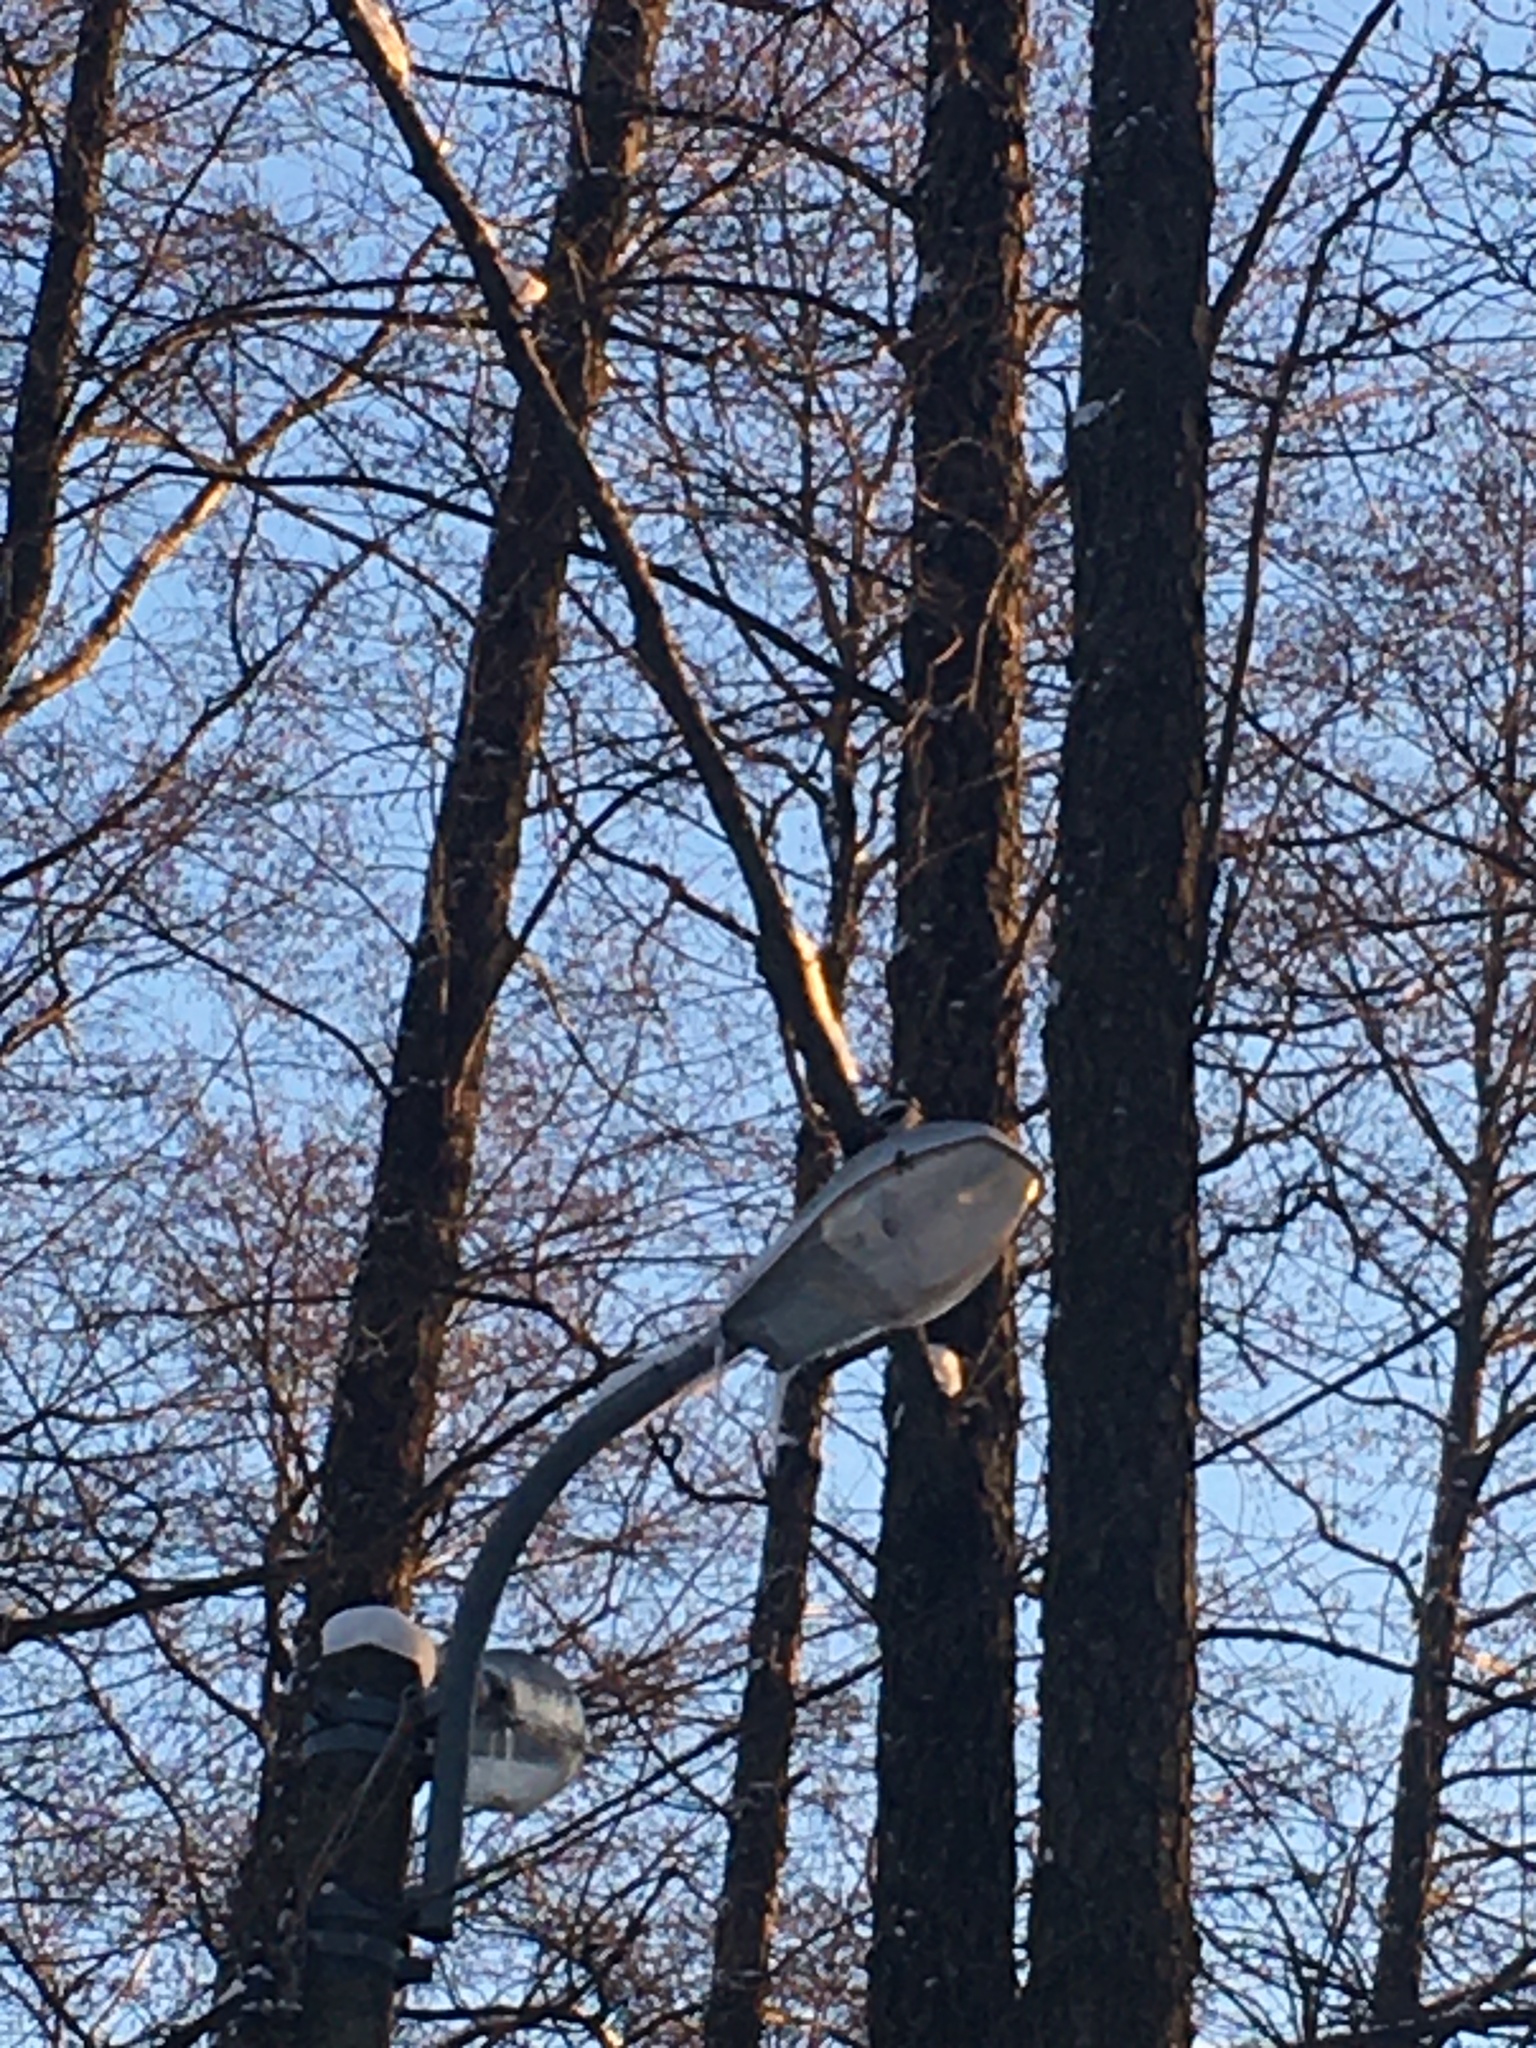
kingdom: Animalia
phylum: Chordata
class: Aves
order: Piciformes
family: Picidae
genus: Dendrocopos
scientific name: Dendrocopos major
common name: Great spotted woodpecker
